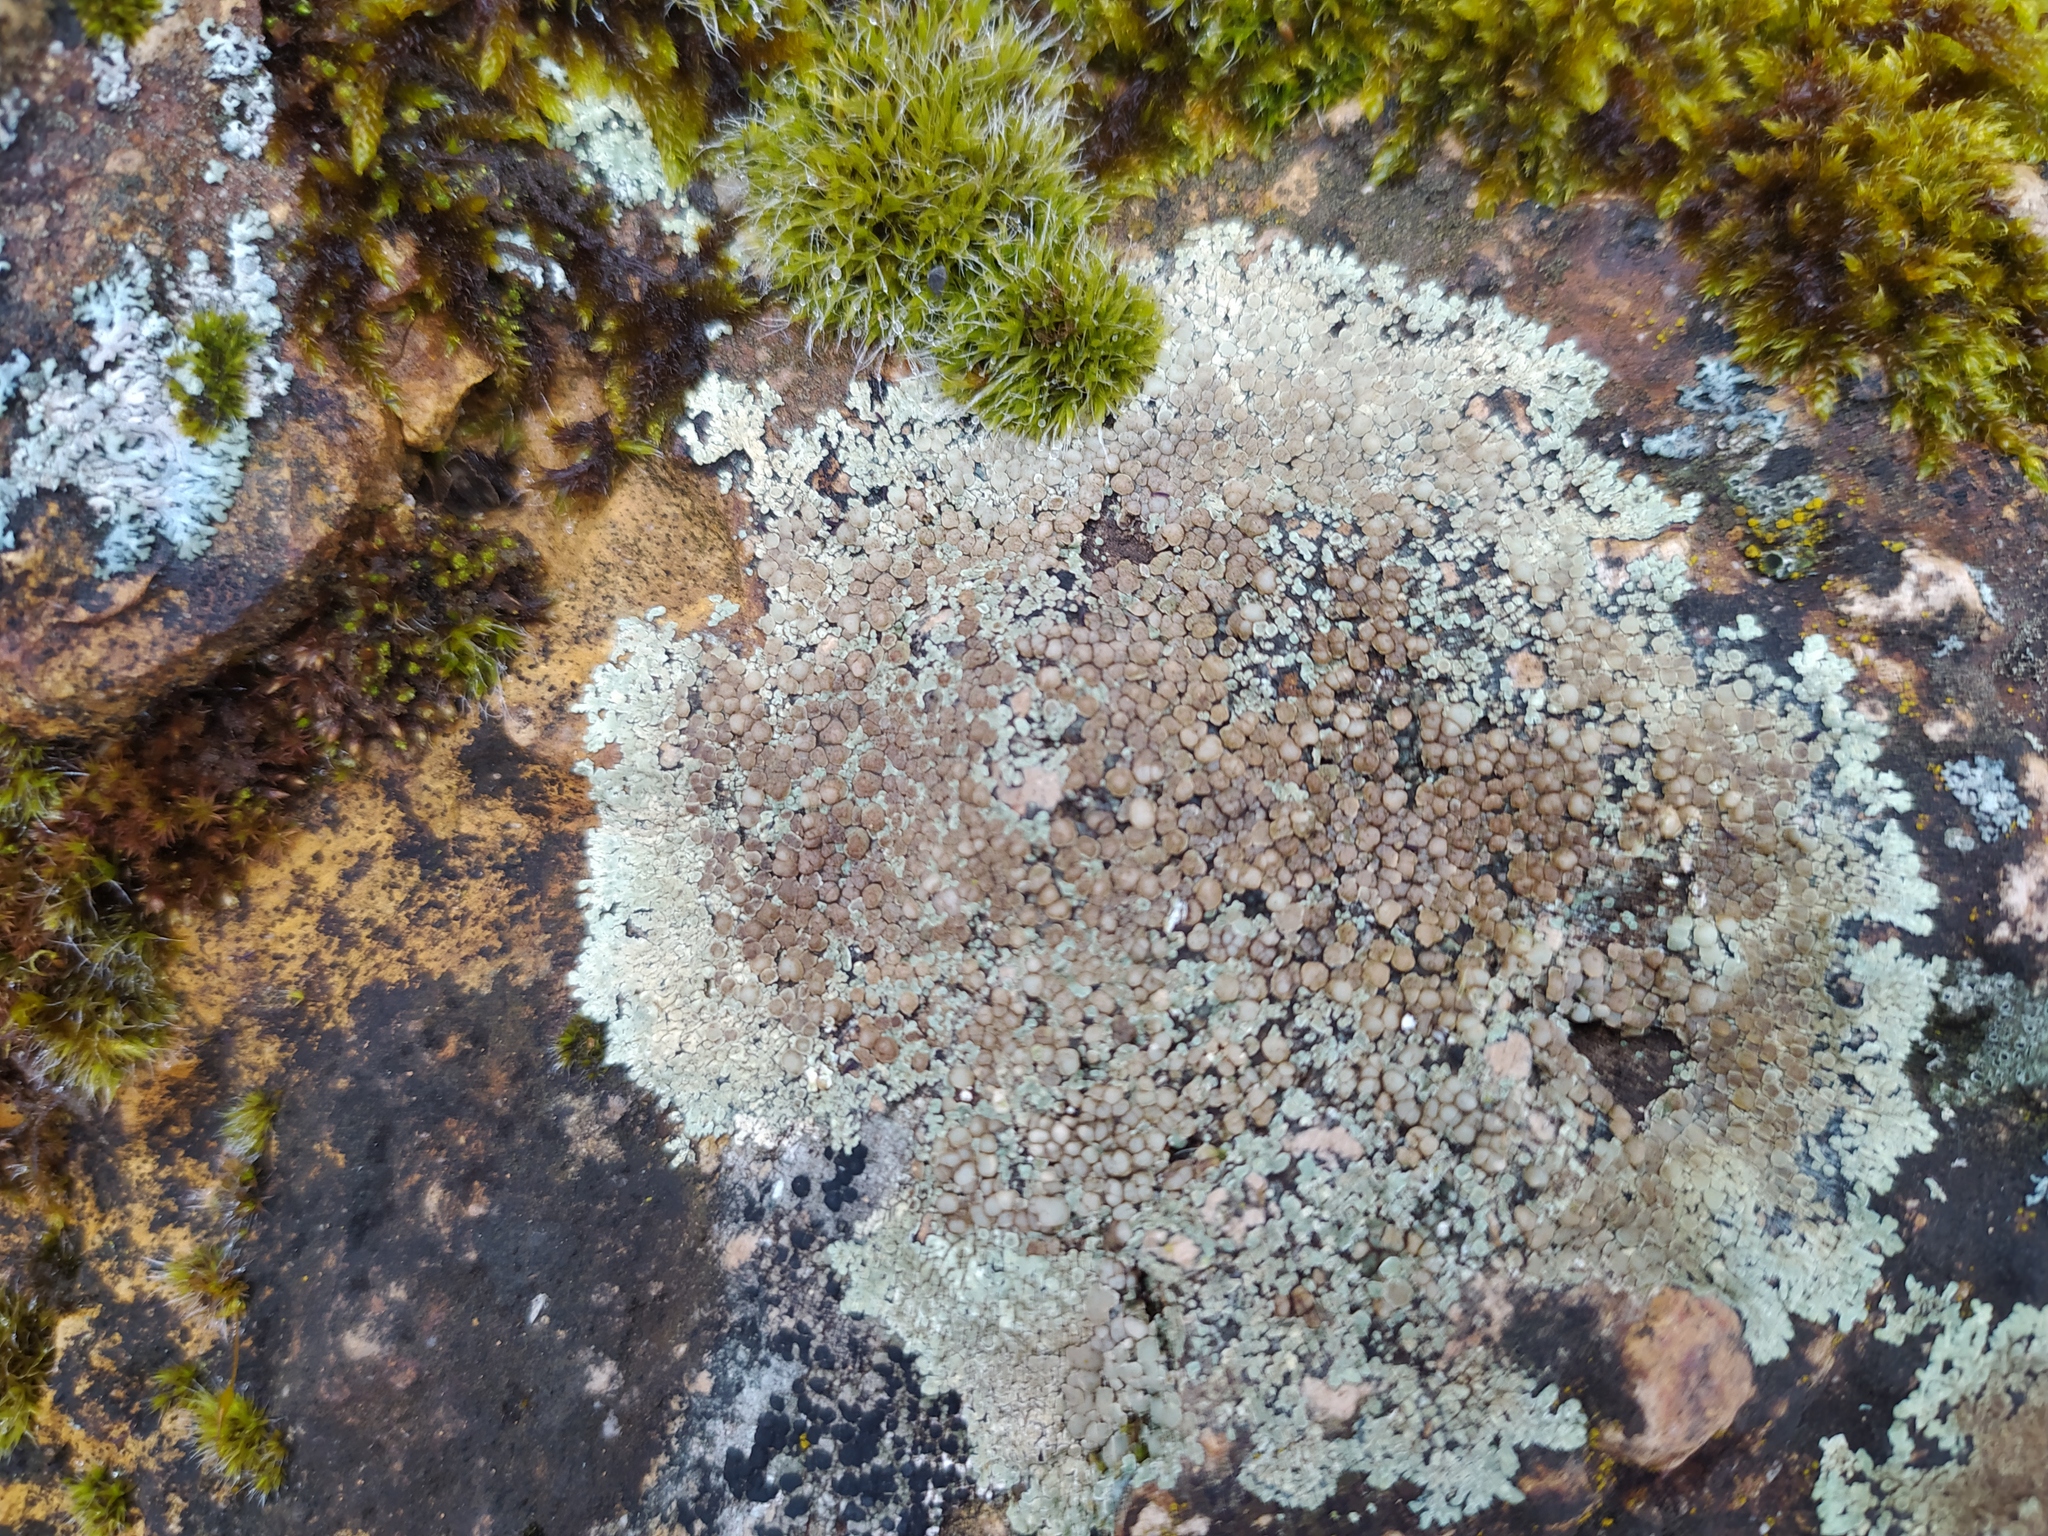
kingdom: Fungi
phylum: Ascomycota
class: Lecanoromycetes
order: Lecanorales
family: Lecanoraceae
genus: Protoparmeliopsis
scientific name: Protoparmeliopsis muralis
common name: Stonewall rim lichen
